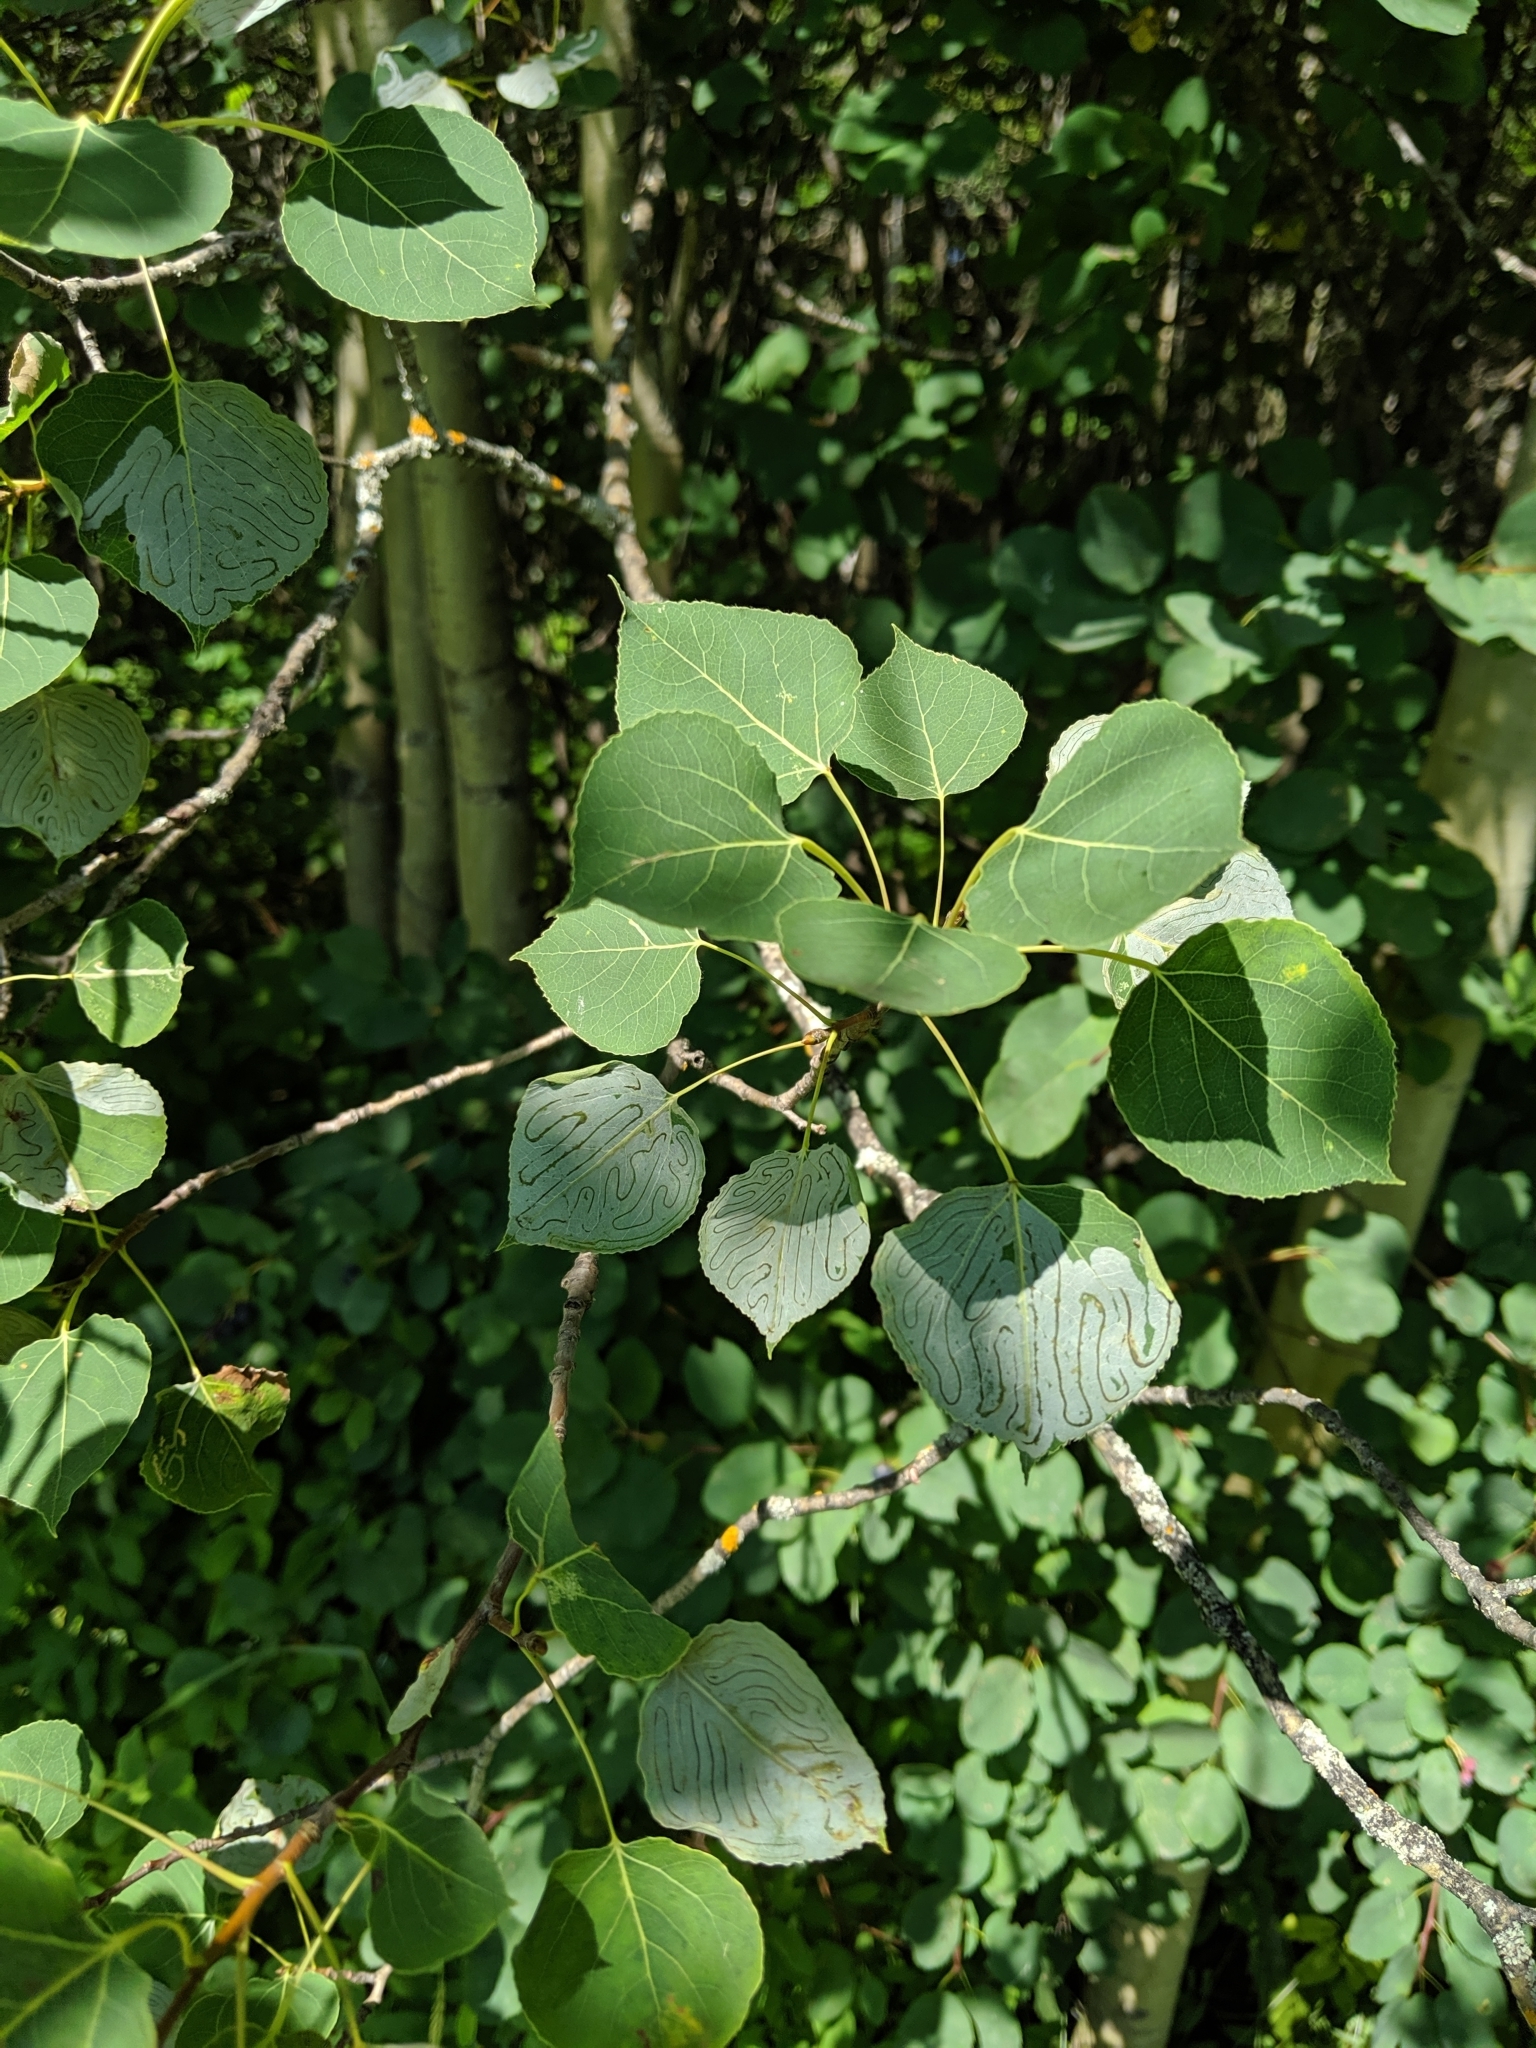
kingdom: Plantae
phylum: Tracheophyta
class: Magnoliopsida
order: Malpighiales
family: Salicaceae
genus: Populus
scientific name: Populus tremuloides
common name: Quaking aspen
